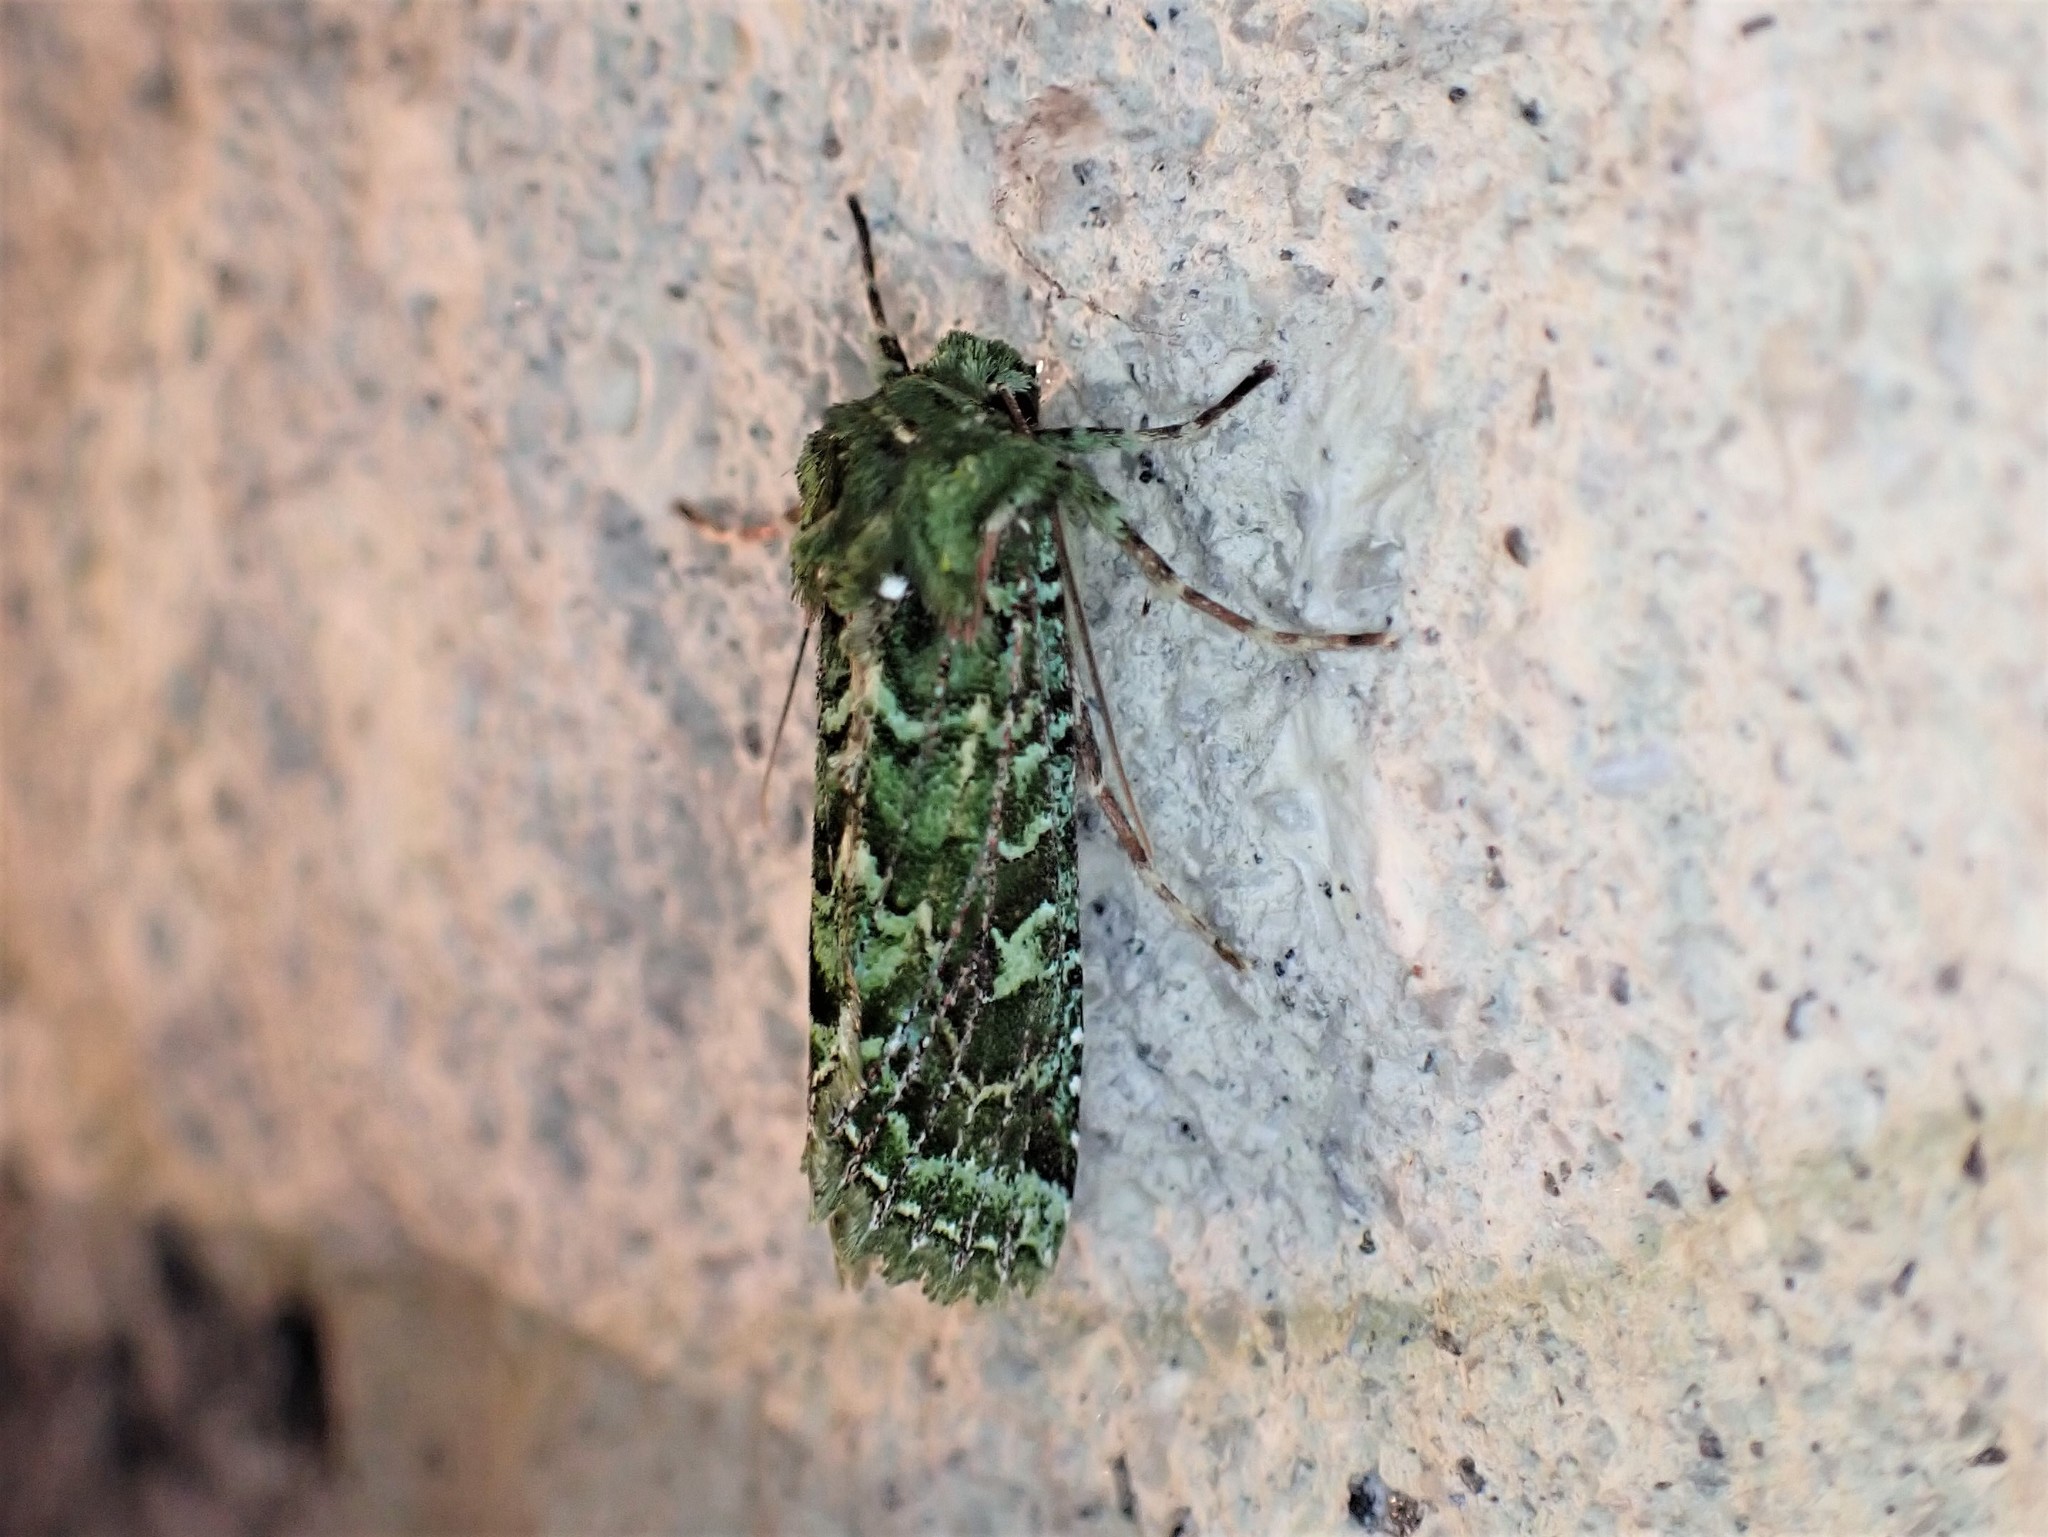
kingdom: Animalia
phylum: Arthropoda
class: Insecta
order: Lepidoptera
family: Noctuidae
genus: Feredayia
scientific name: Feredayia grammosa
